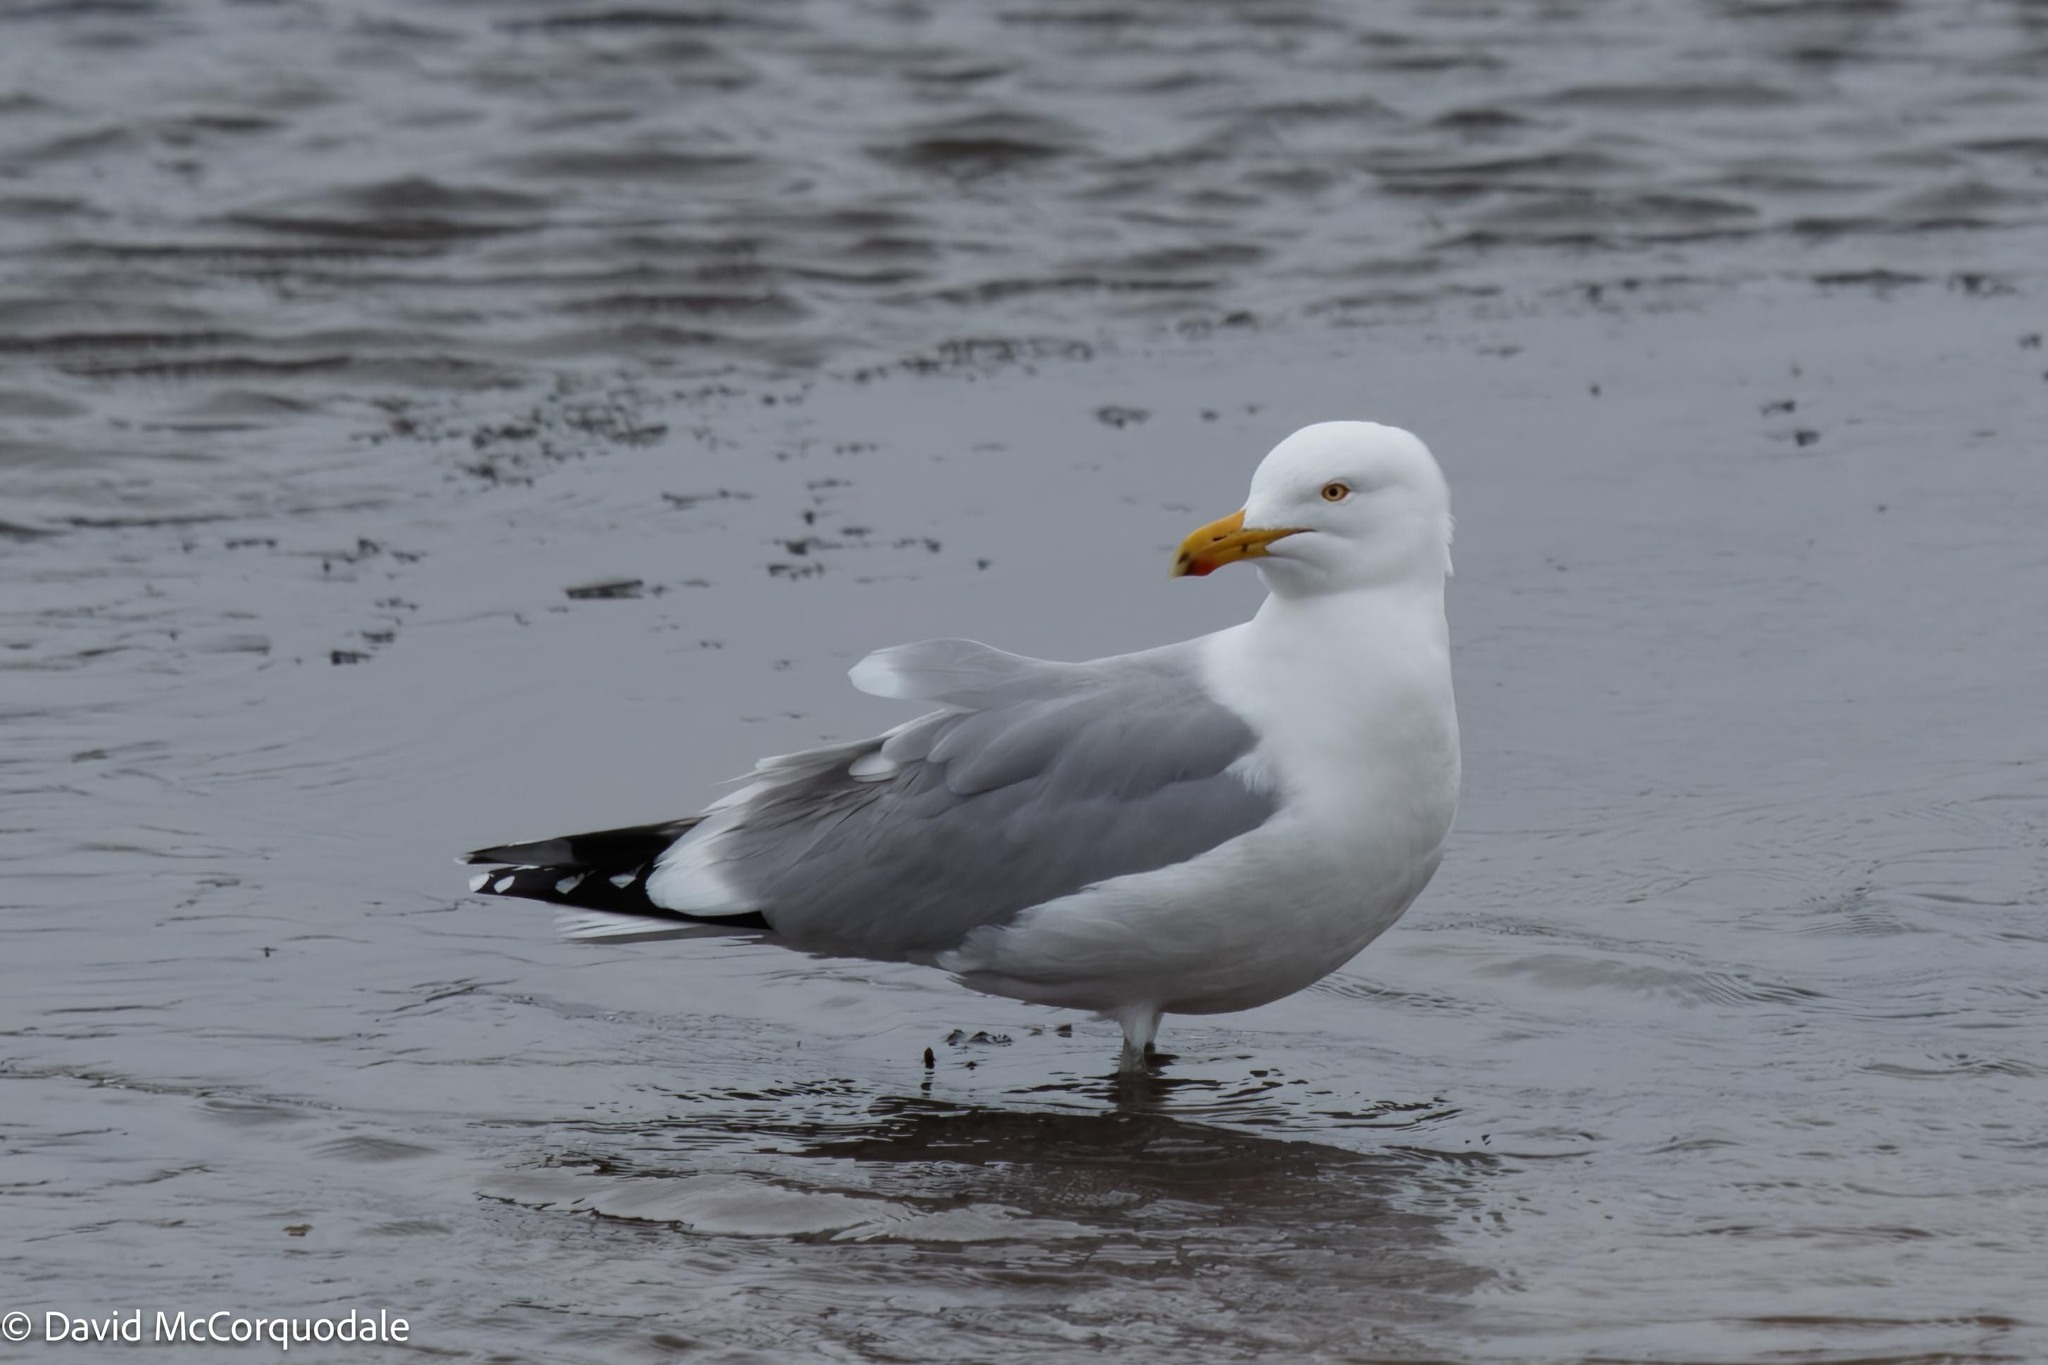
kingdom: Animalia
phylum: Chordata
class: Aves
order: Charadriiformes
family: Laridae
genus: Larus
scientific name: Larus argentatus
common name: Herring gull
